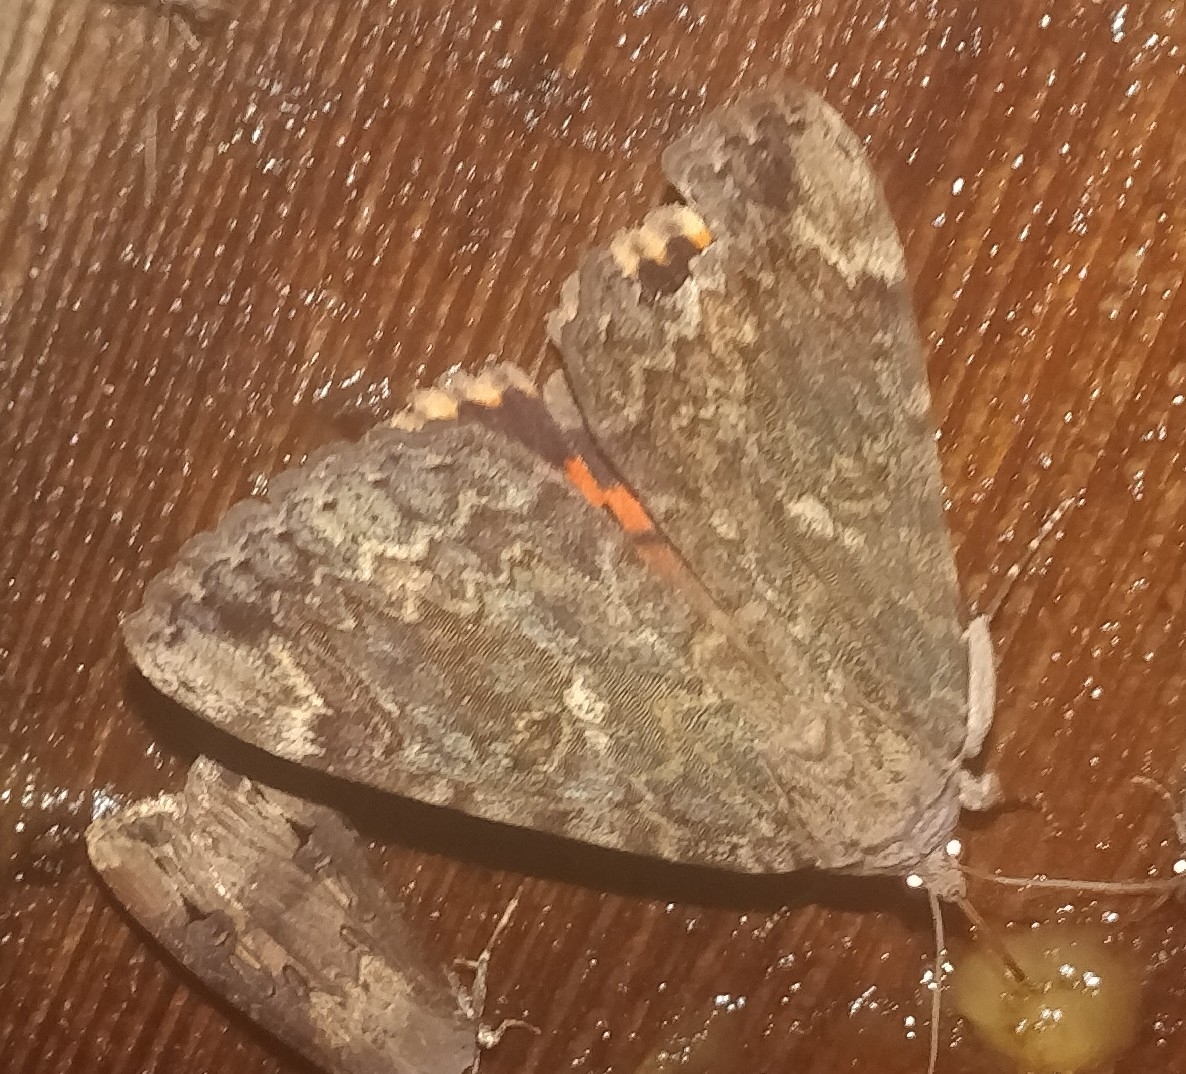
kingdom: Animalia
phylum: Arthropoda
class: Insecta
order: Lepidoptera
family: Erebidae
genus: Catocala
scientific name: Catocala innubens
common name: Betrothed underwing
